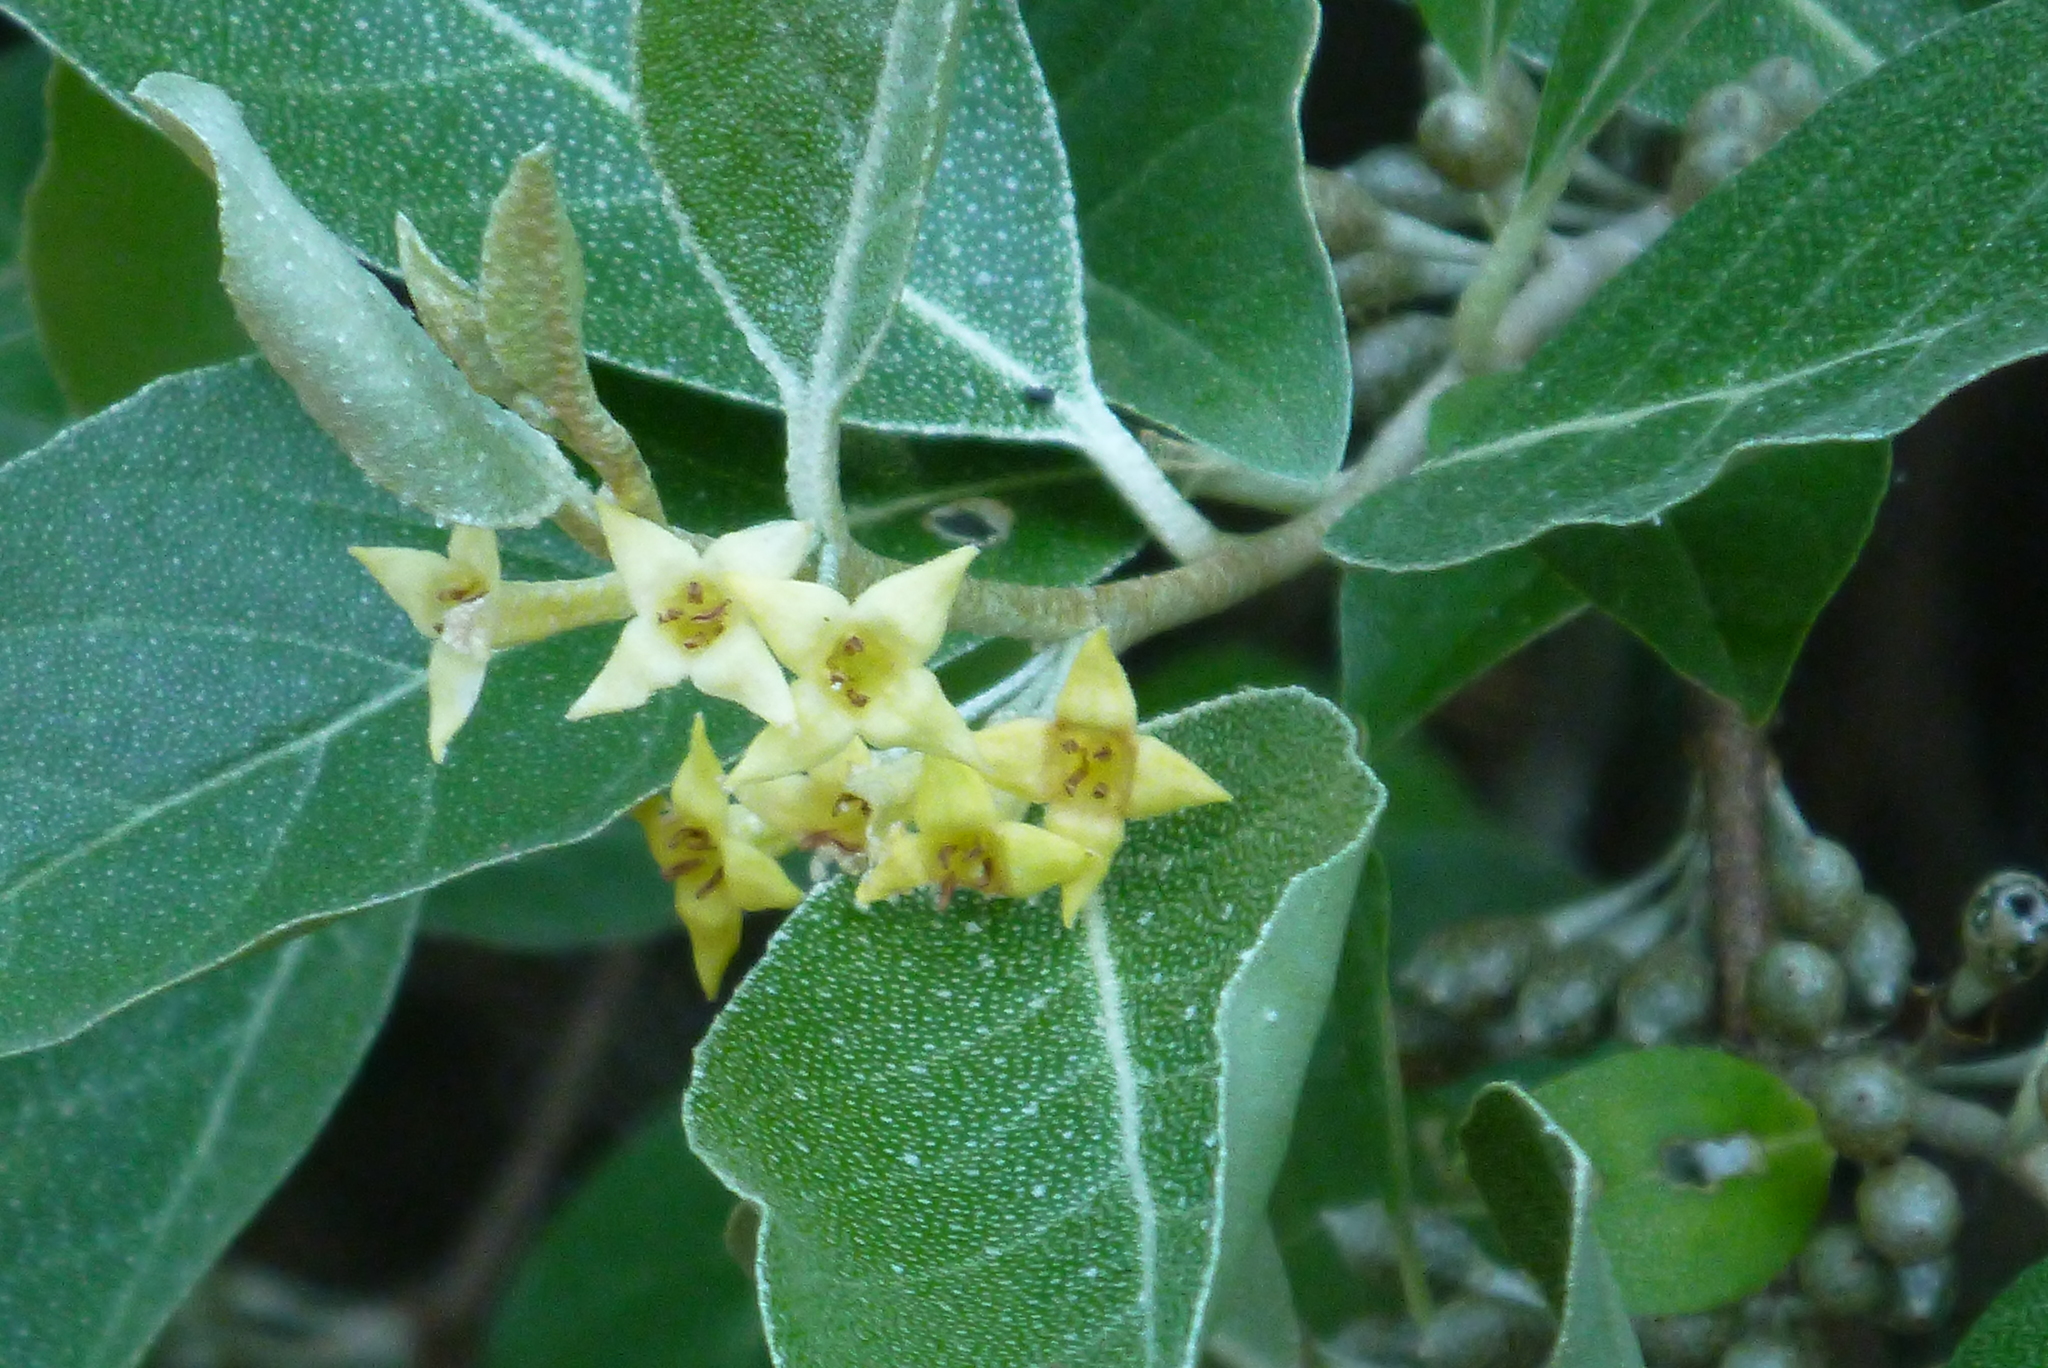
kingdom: Plantae
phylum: Tracheophyta
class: Magnoliopsida
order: Rosales
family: Elaeagnaceae
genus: Elaeagnus
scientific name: Elaeagnus umbellata
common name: Autumn olive
